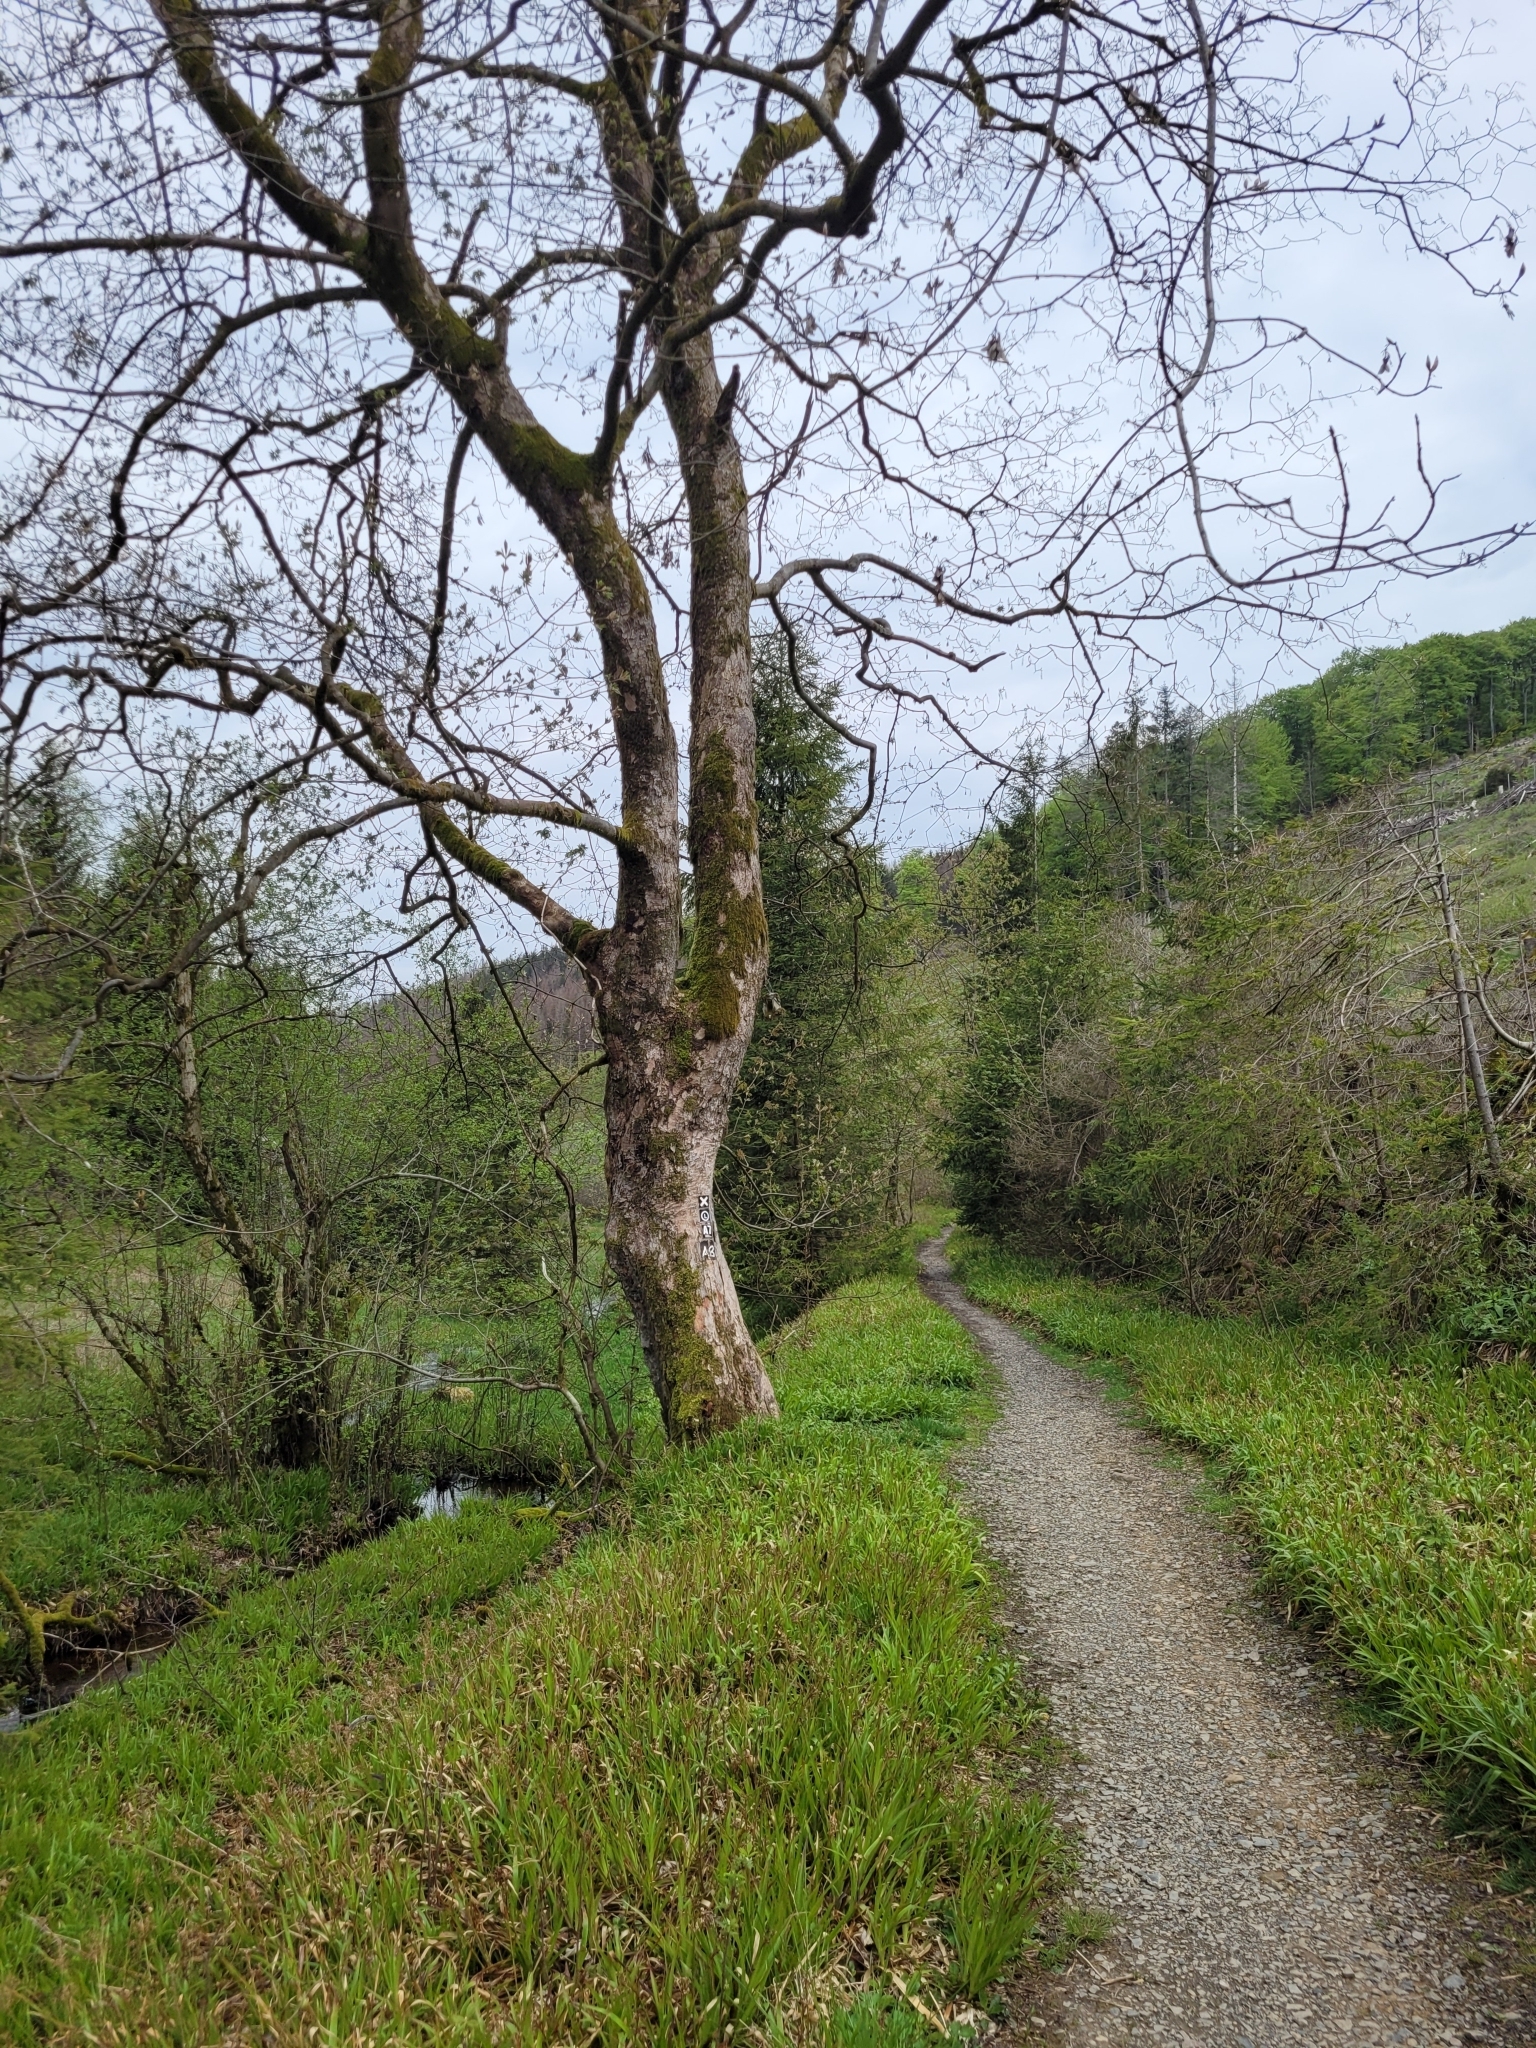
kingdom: Plantae
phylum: Tracheophyta
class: Magnoliopsida
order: Sapindales
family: Sapindaceae
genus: Acer
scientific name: Acer pseudoplatanus
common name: Sycamore
